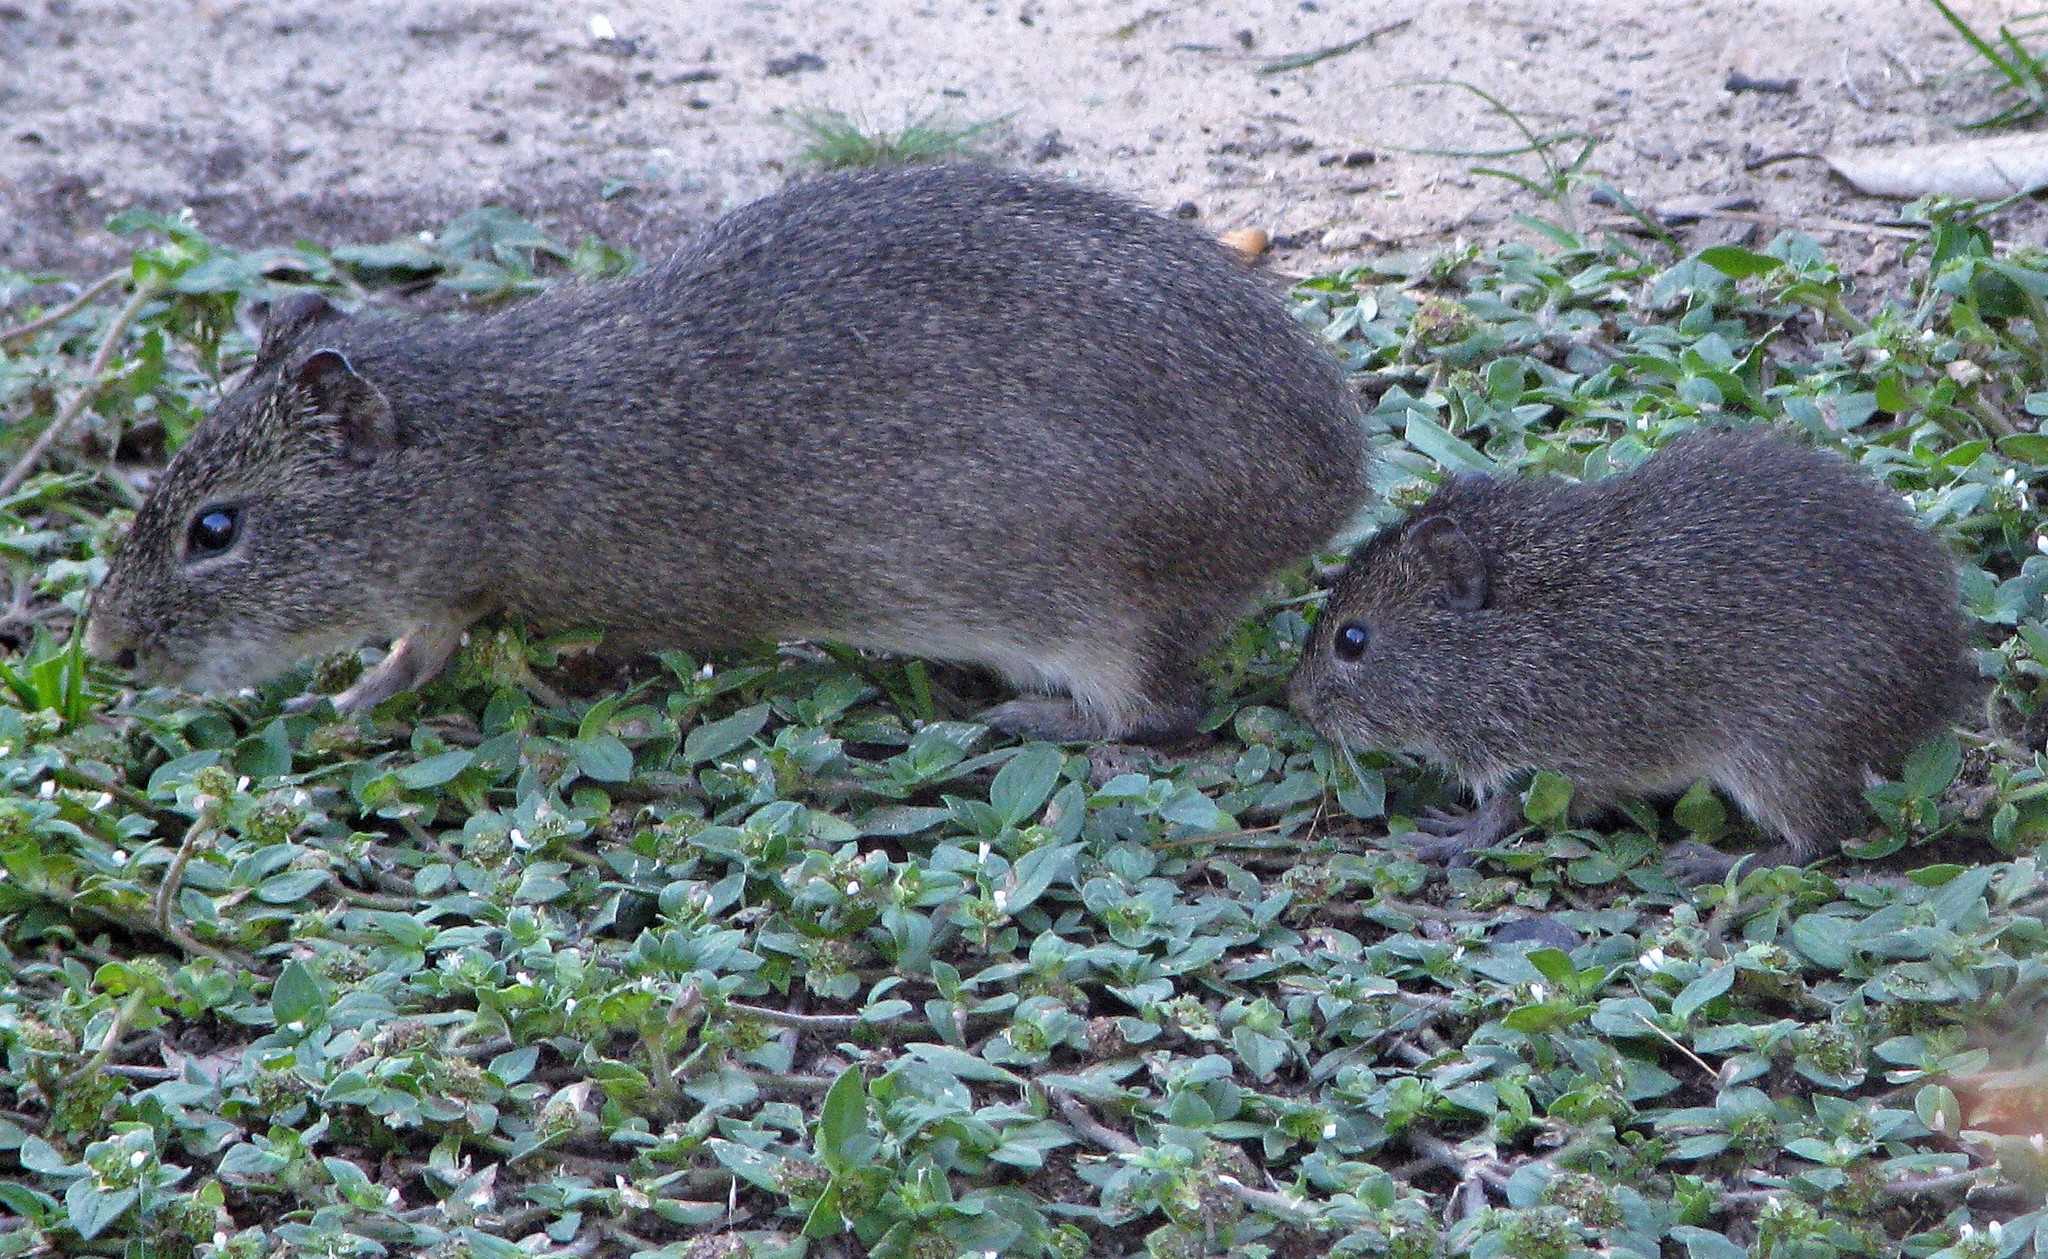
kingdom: Animalia
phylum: Chordata
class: Mammalia
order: Rodentia
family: Caviidae
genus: Cavia
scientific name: Cavia aperea
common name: Brazilian guinea pig
